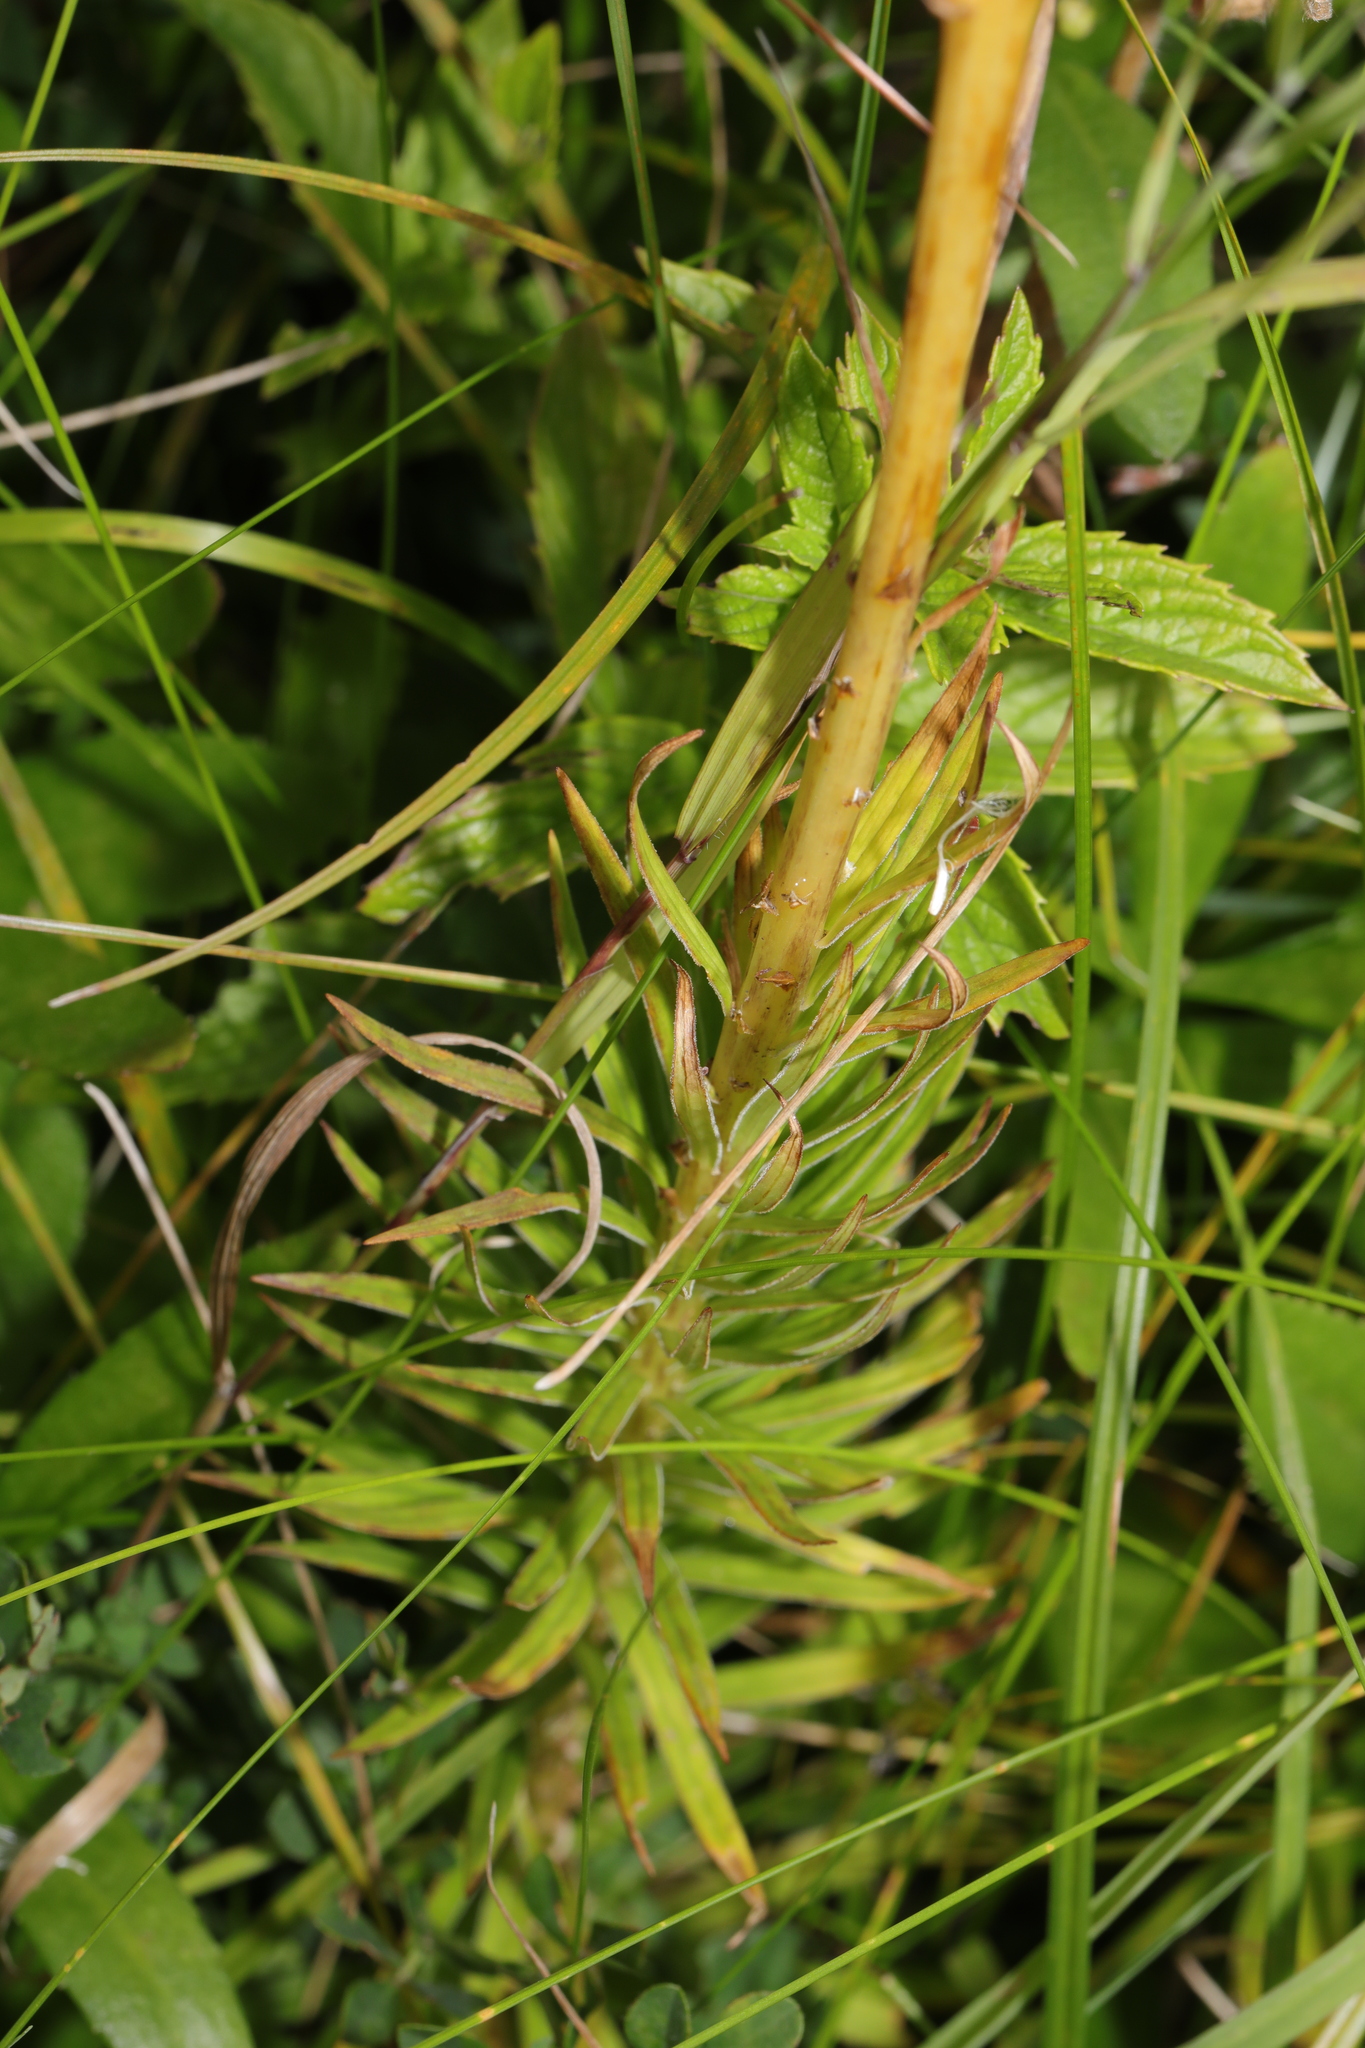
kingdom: Plantae
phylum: Tracheophyta
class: Liliopsida
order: Liliales
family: Liliaceae
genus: Lilium
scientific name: Lilium pyrenaicum
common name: Pyrenean lily
